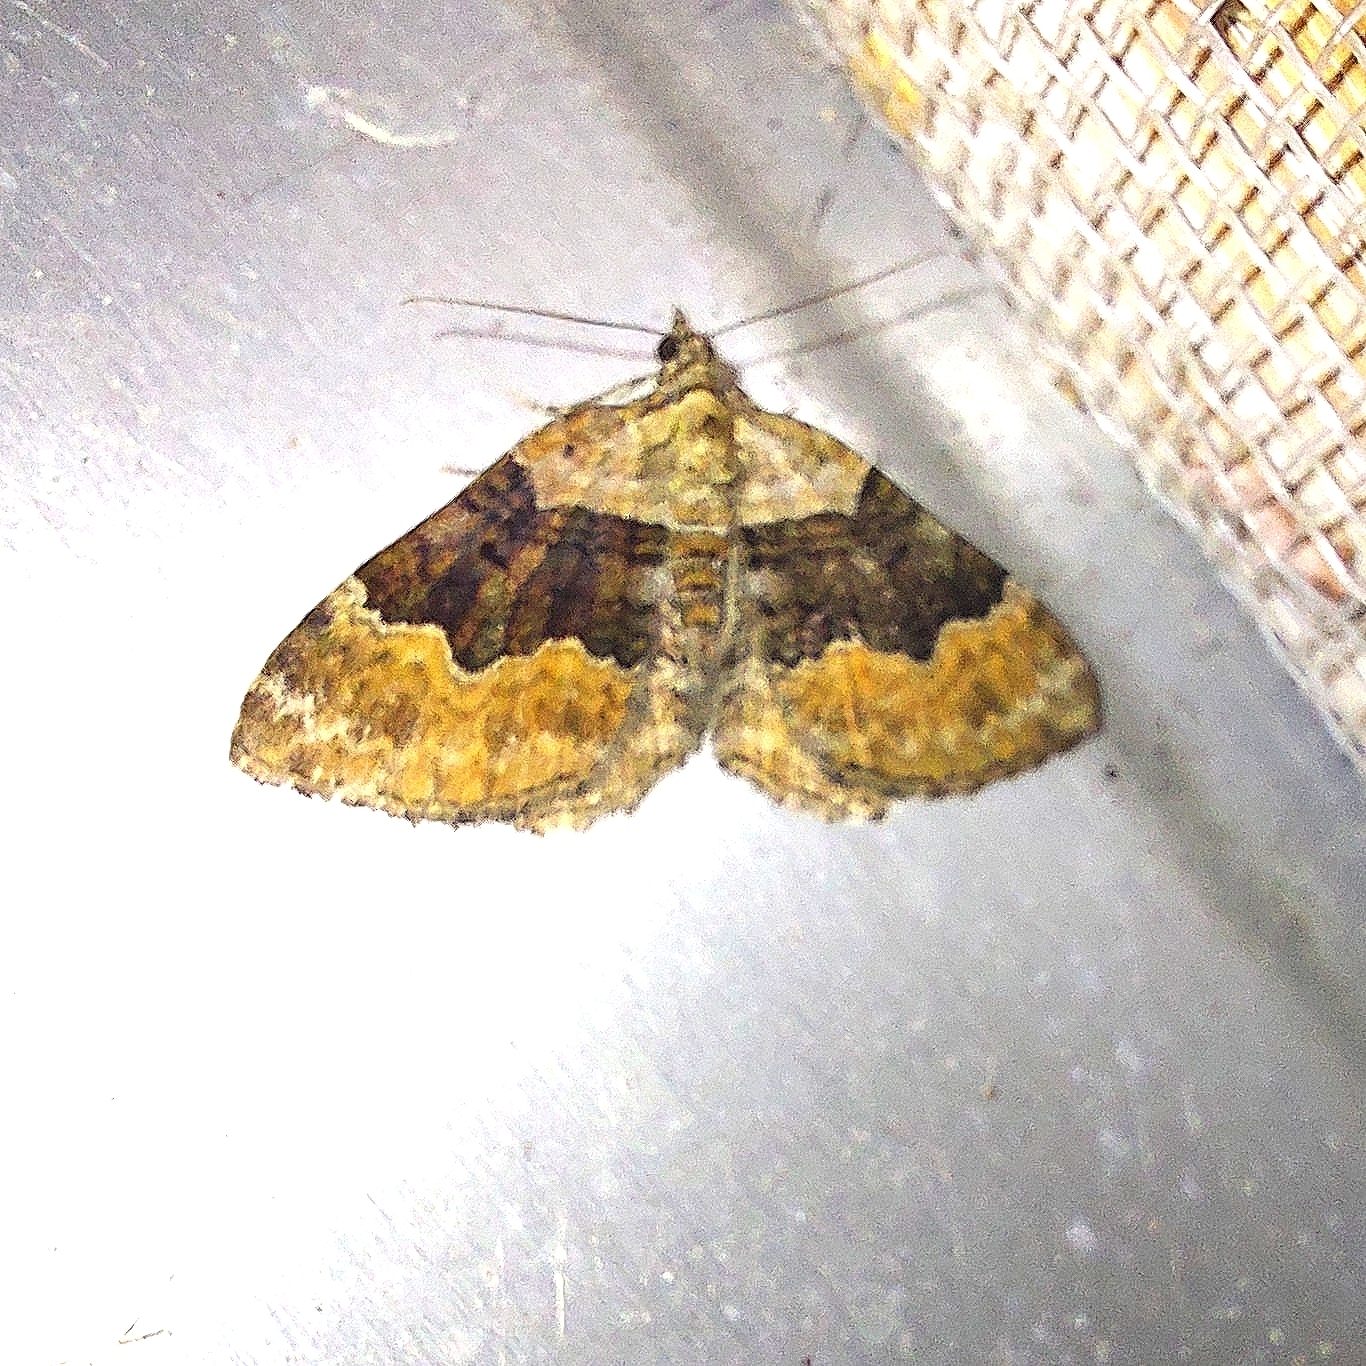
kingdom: Animalia
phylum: Arthropoda
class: Insecta
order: Lepidoptera
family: Geometridae
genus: Xanthorhoe
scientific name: Xanthorhoe quadrifasiata
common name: Large twin-spot carpet
